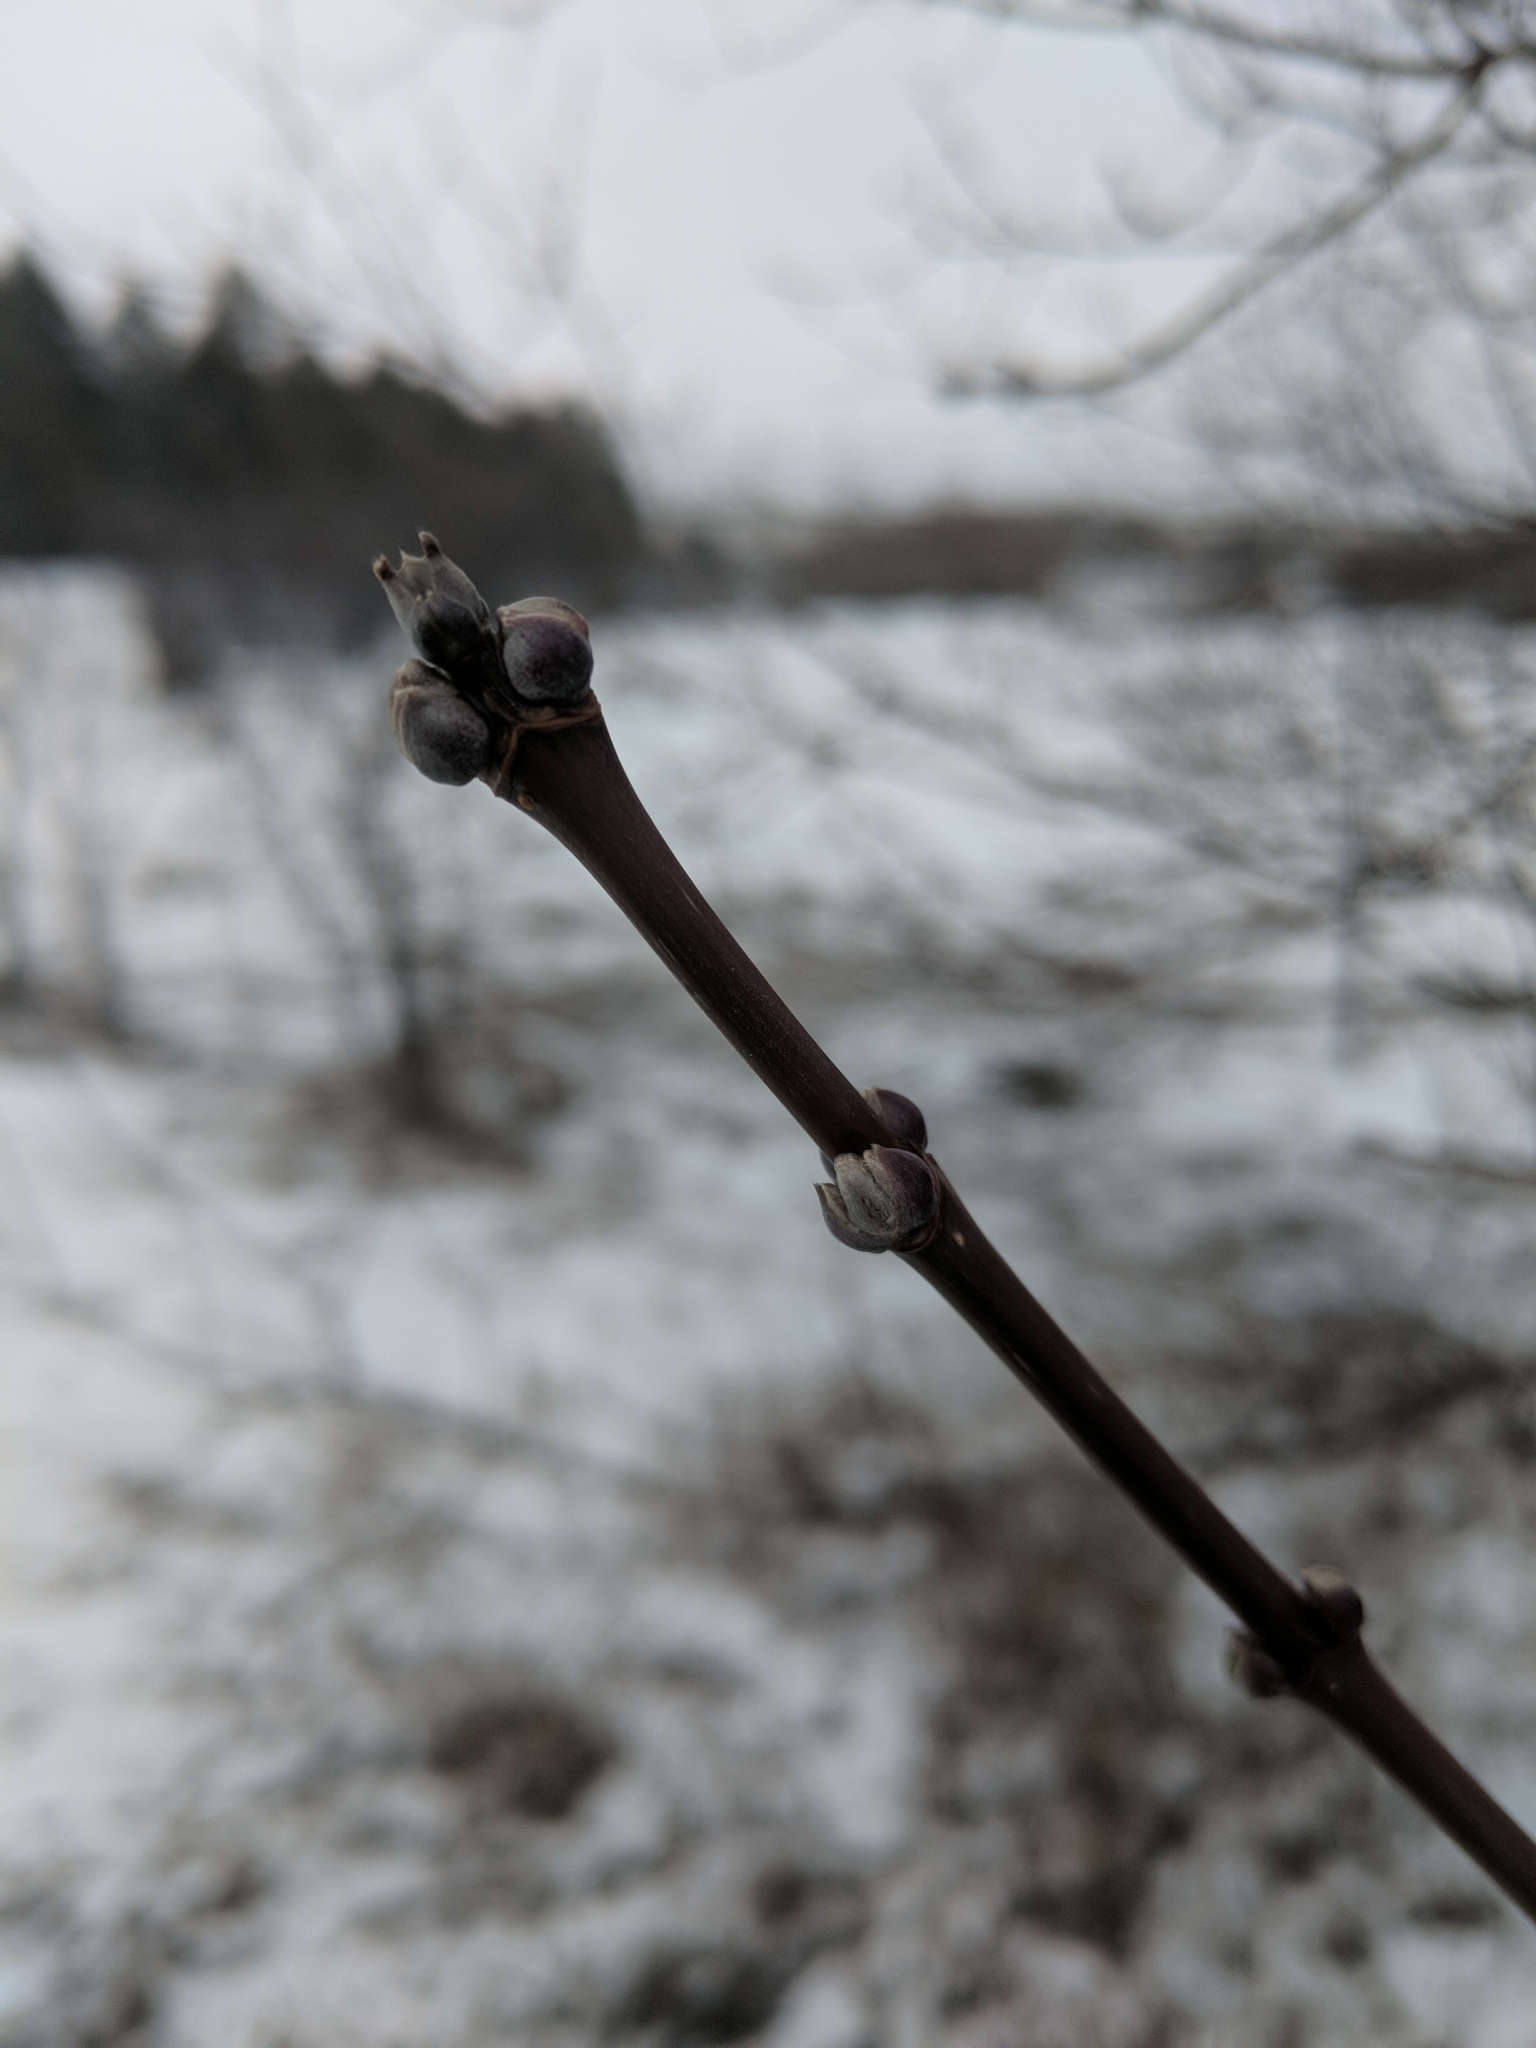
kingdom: Plantae
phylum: Tracheophyta
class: Magnoliopsida
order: Sapindales
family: Sapindaceae
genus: Acer
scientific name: Acer negundo
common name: Ashleaf maple
